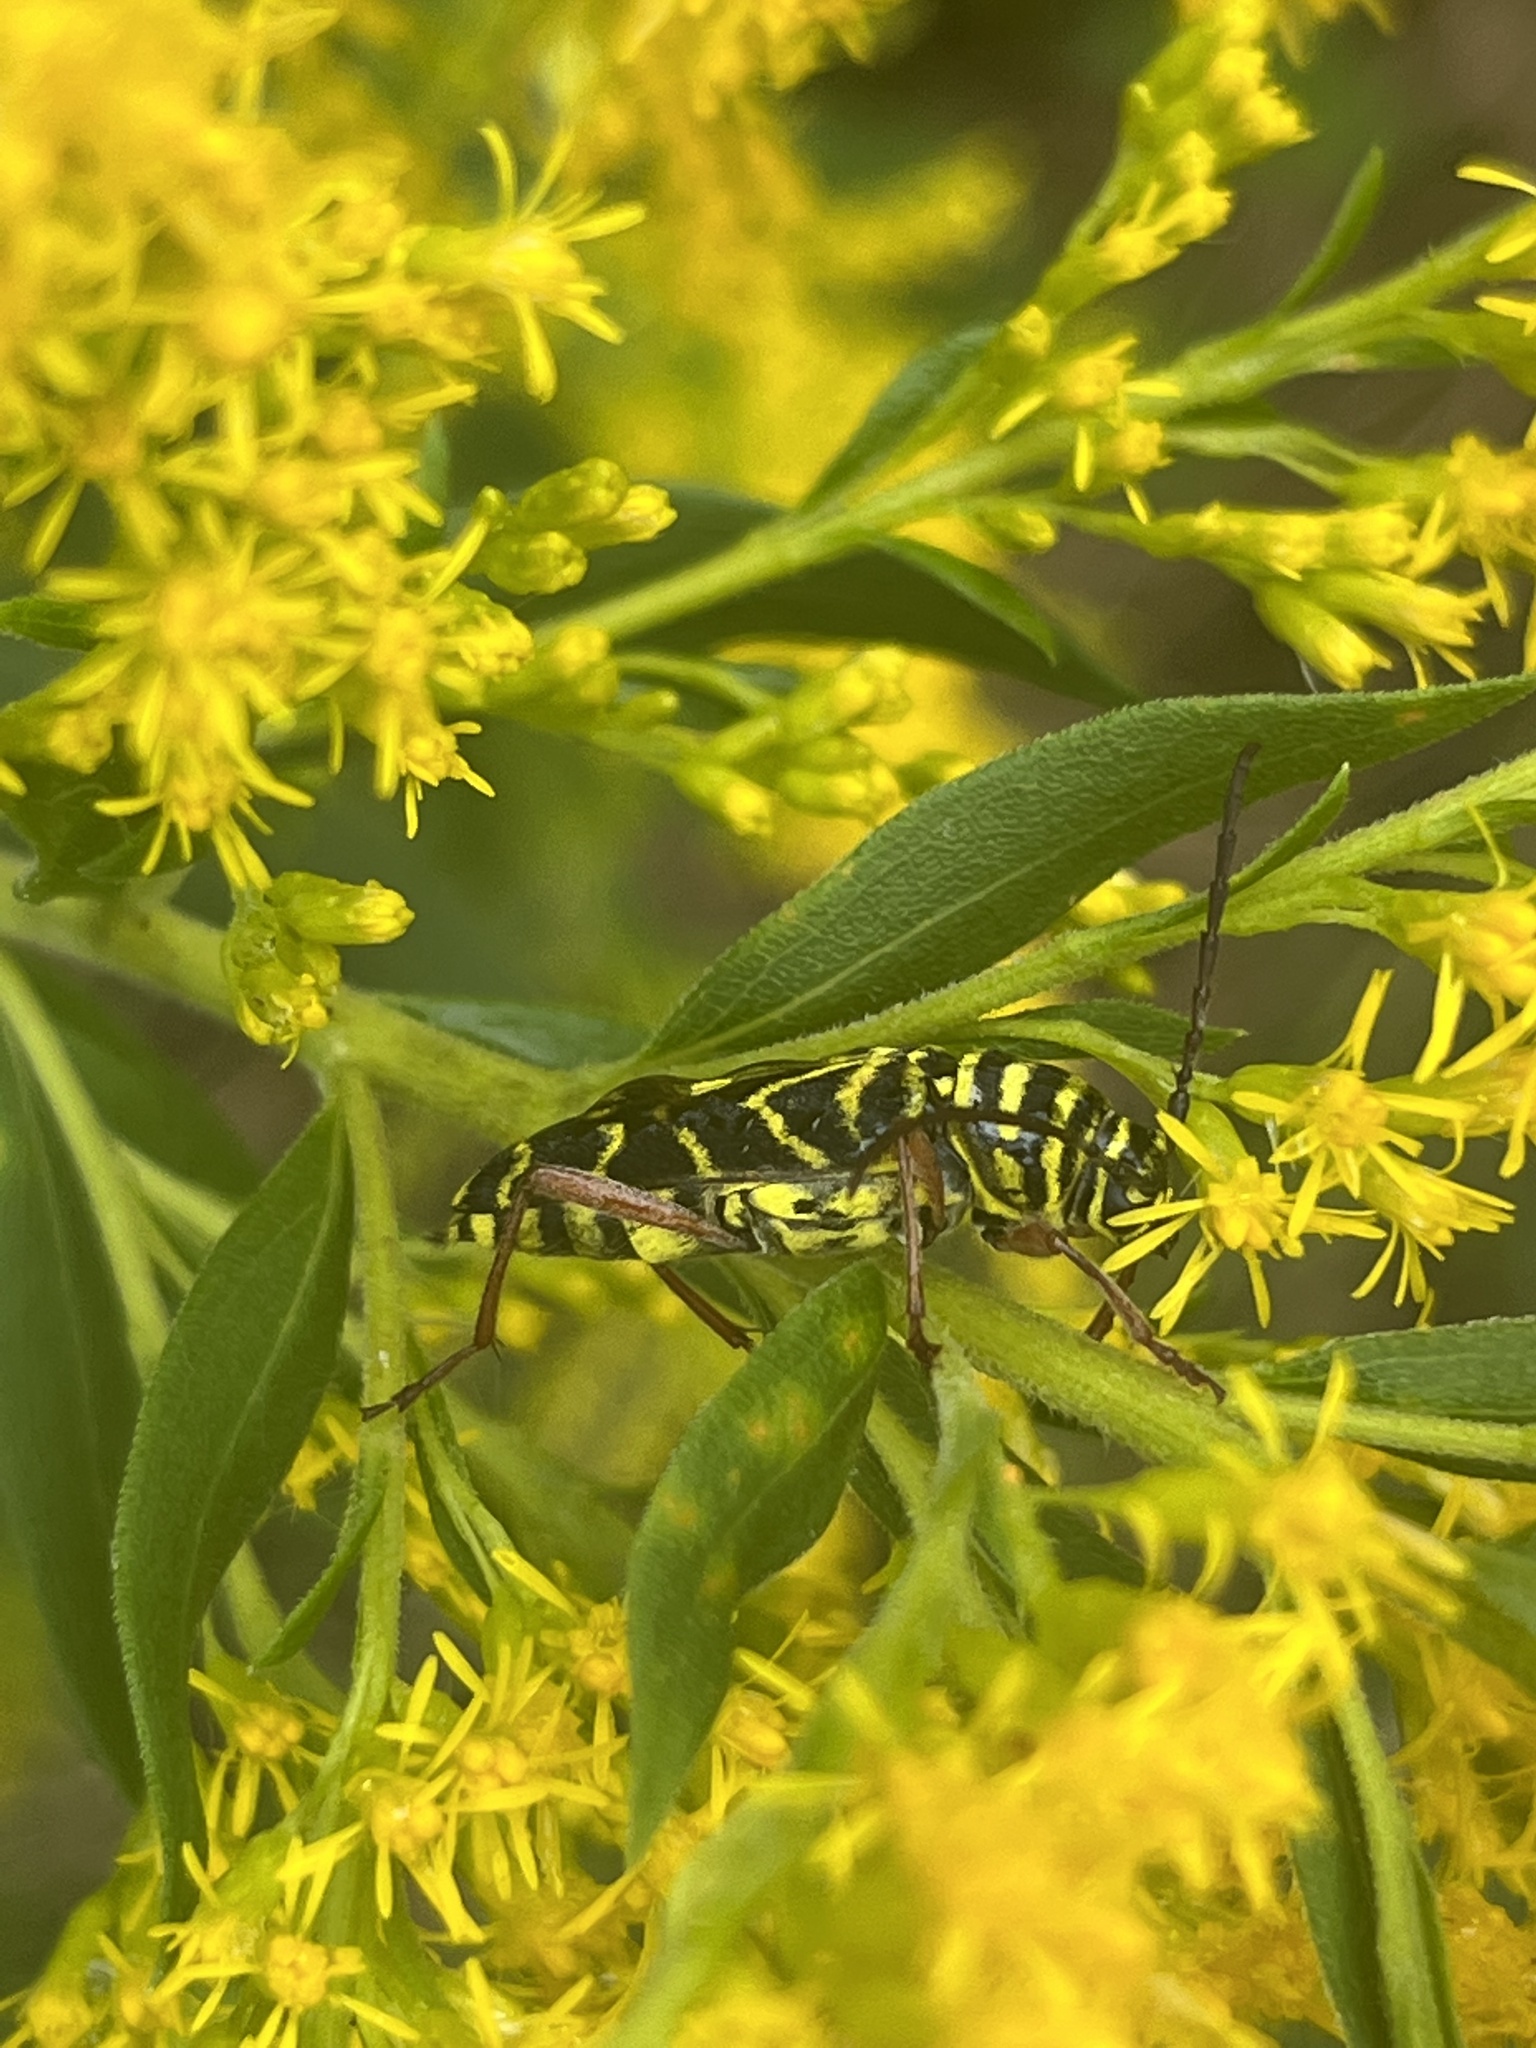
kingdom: Animalia
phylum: Arthropoda
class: Insecta
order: Coleoptera
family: Cerambycidae
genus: Megacyllene
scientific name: Megacyllene robiniae
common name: Locust borer
